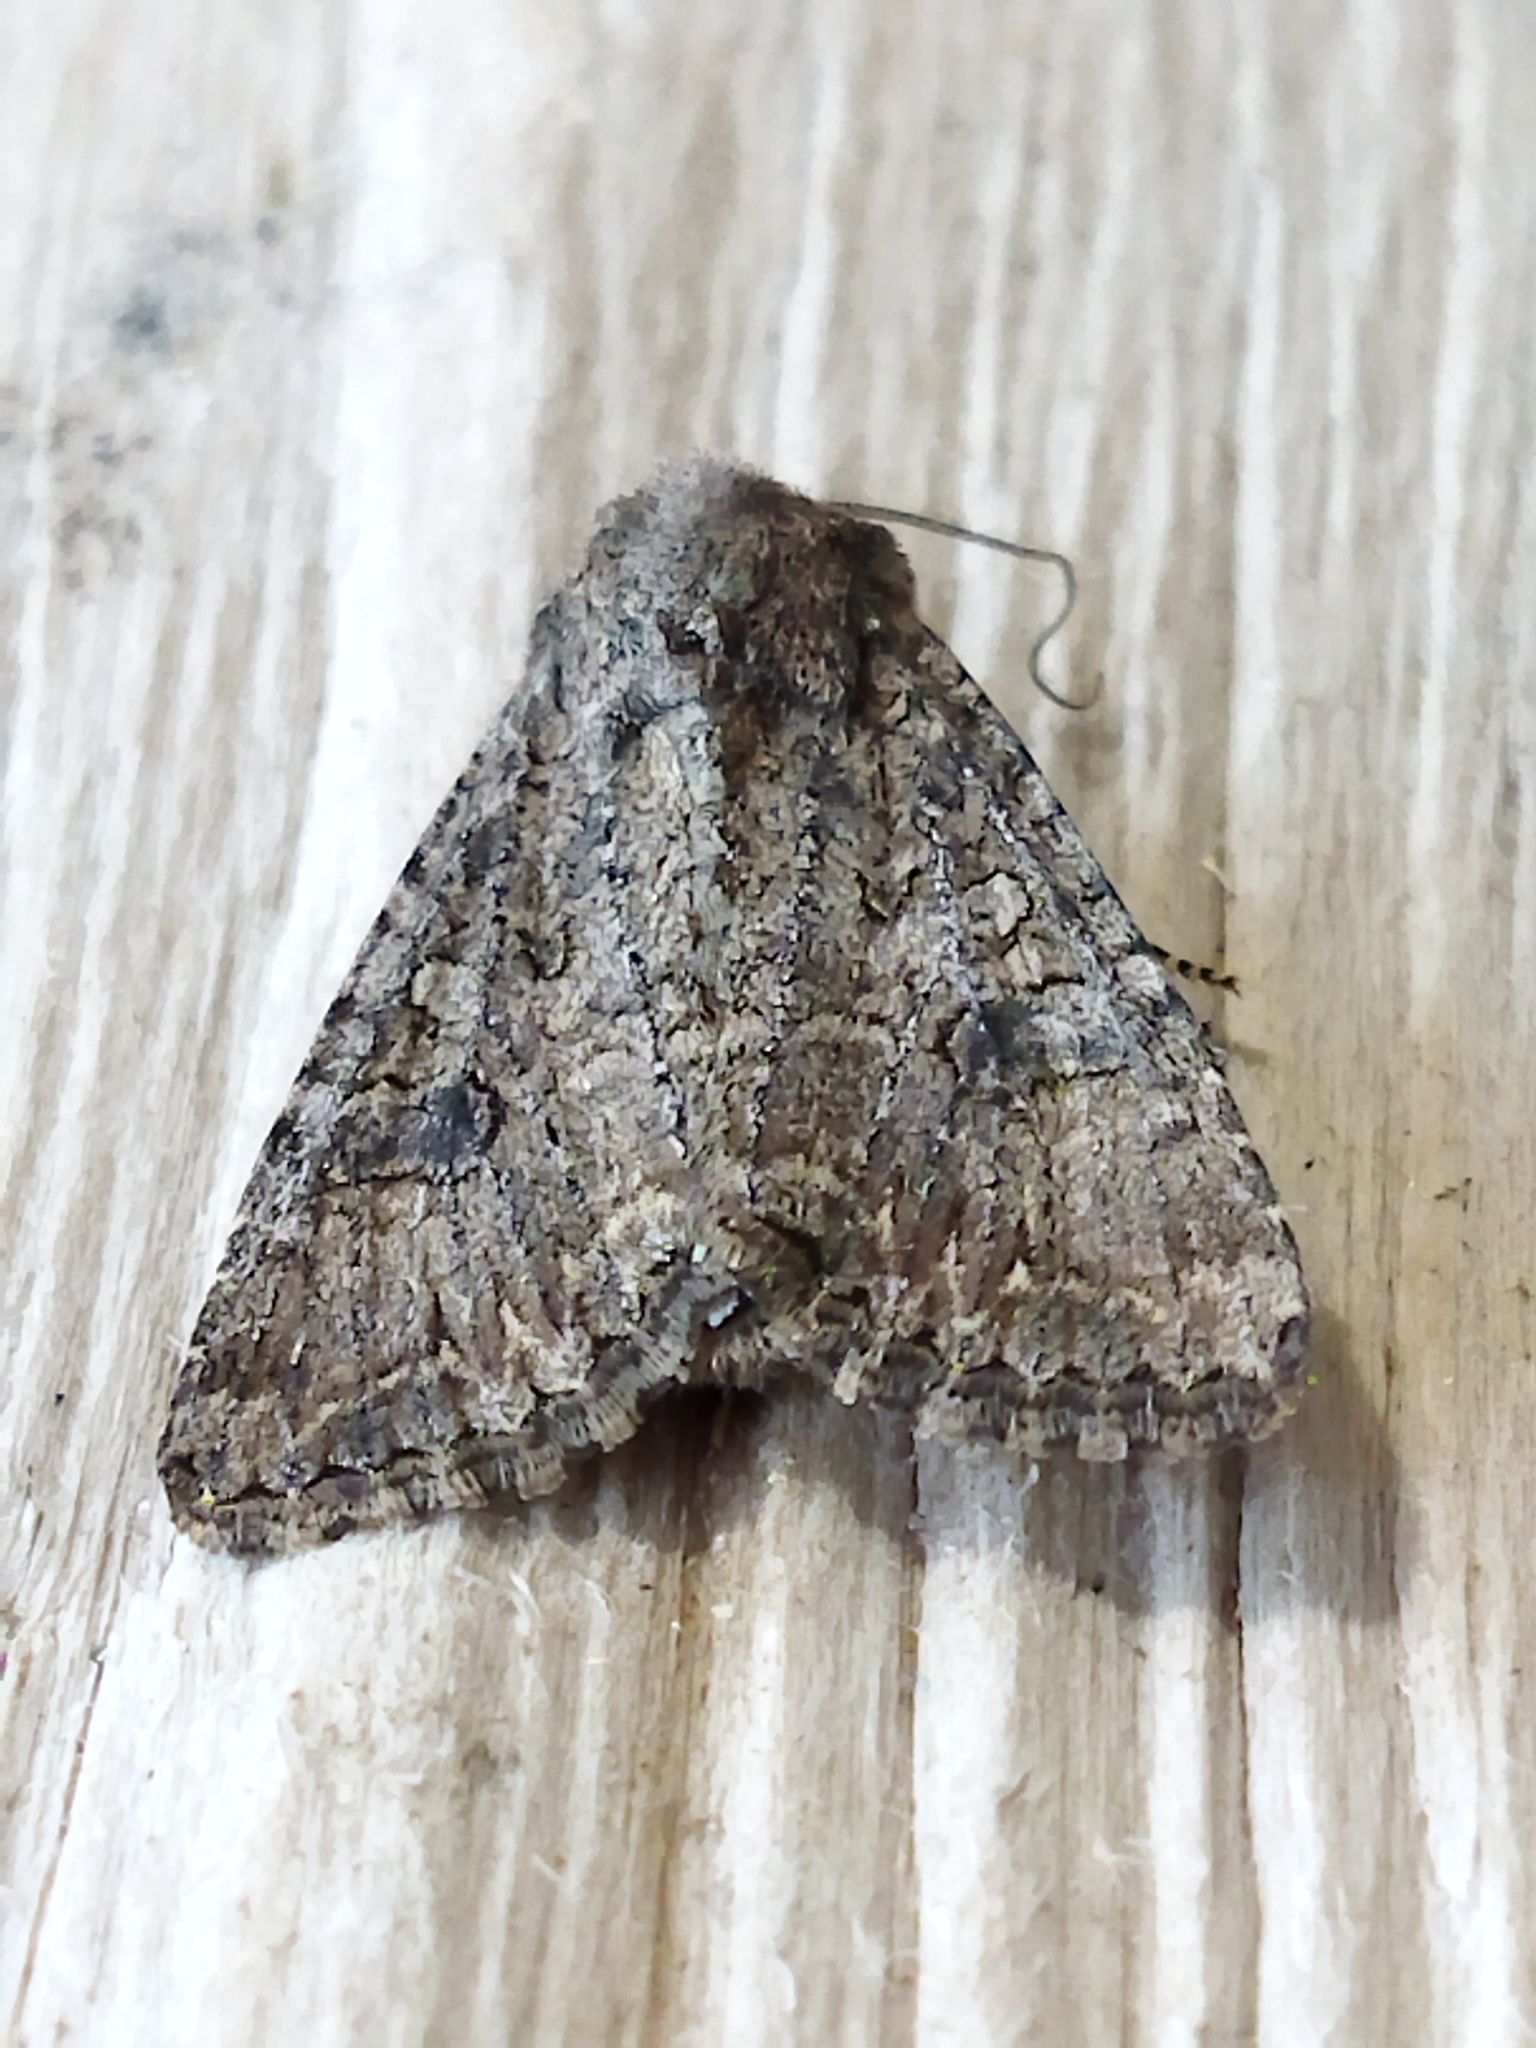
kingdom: Animalia
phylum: Arthropoda
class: Insecta
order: Lepidoptera
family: Noctuidae
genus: Anarta
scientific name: Anarta trifolii
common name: Clover cutworm moth
